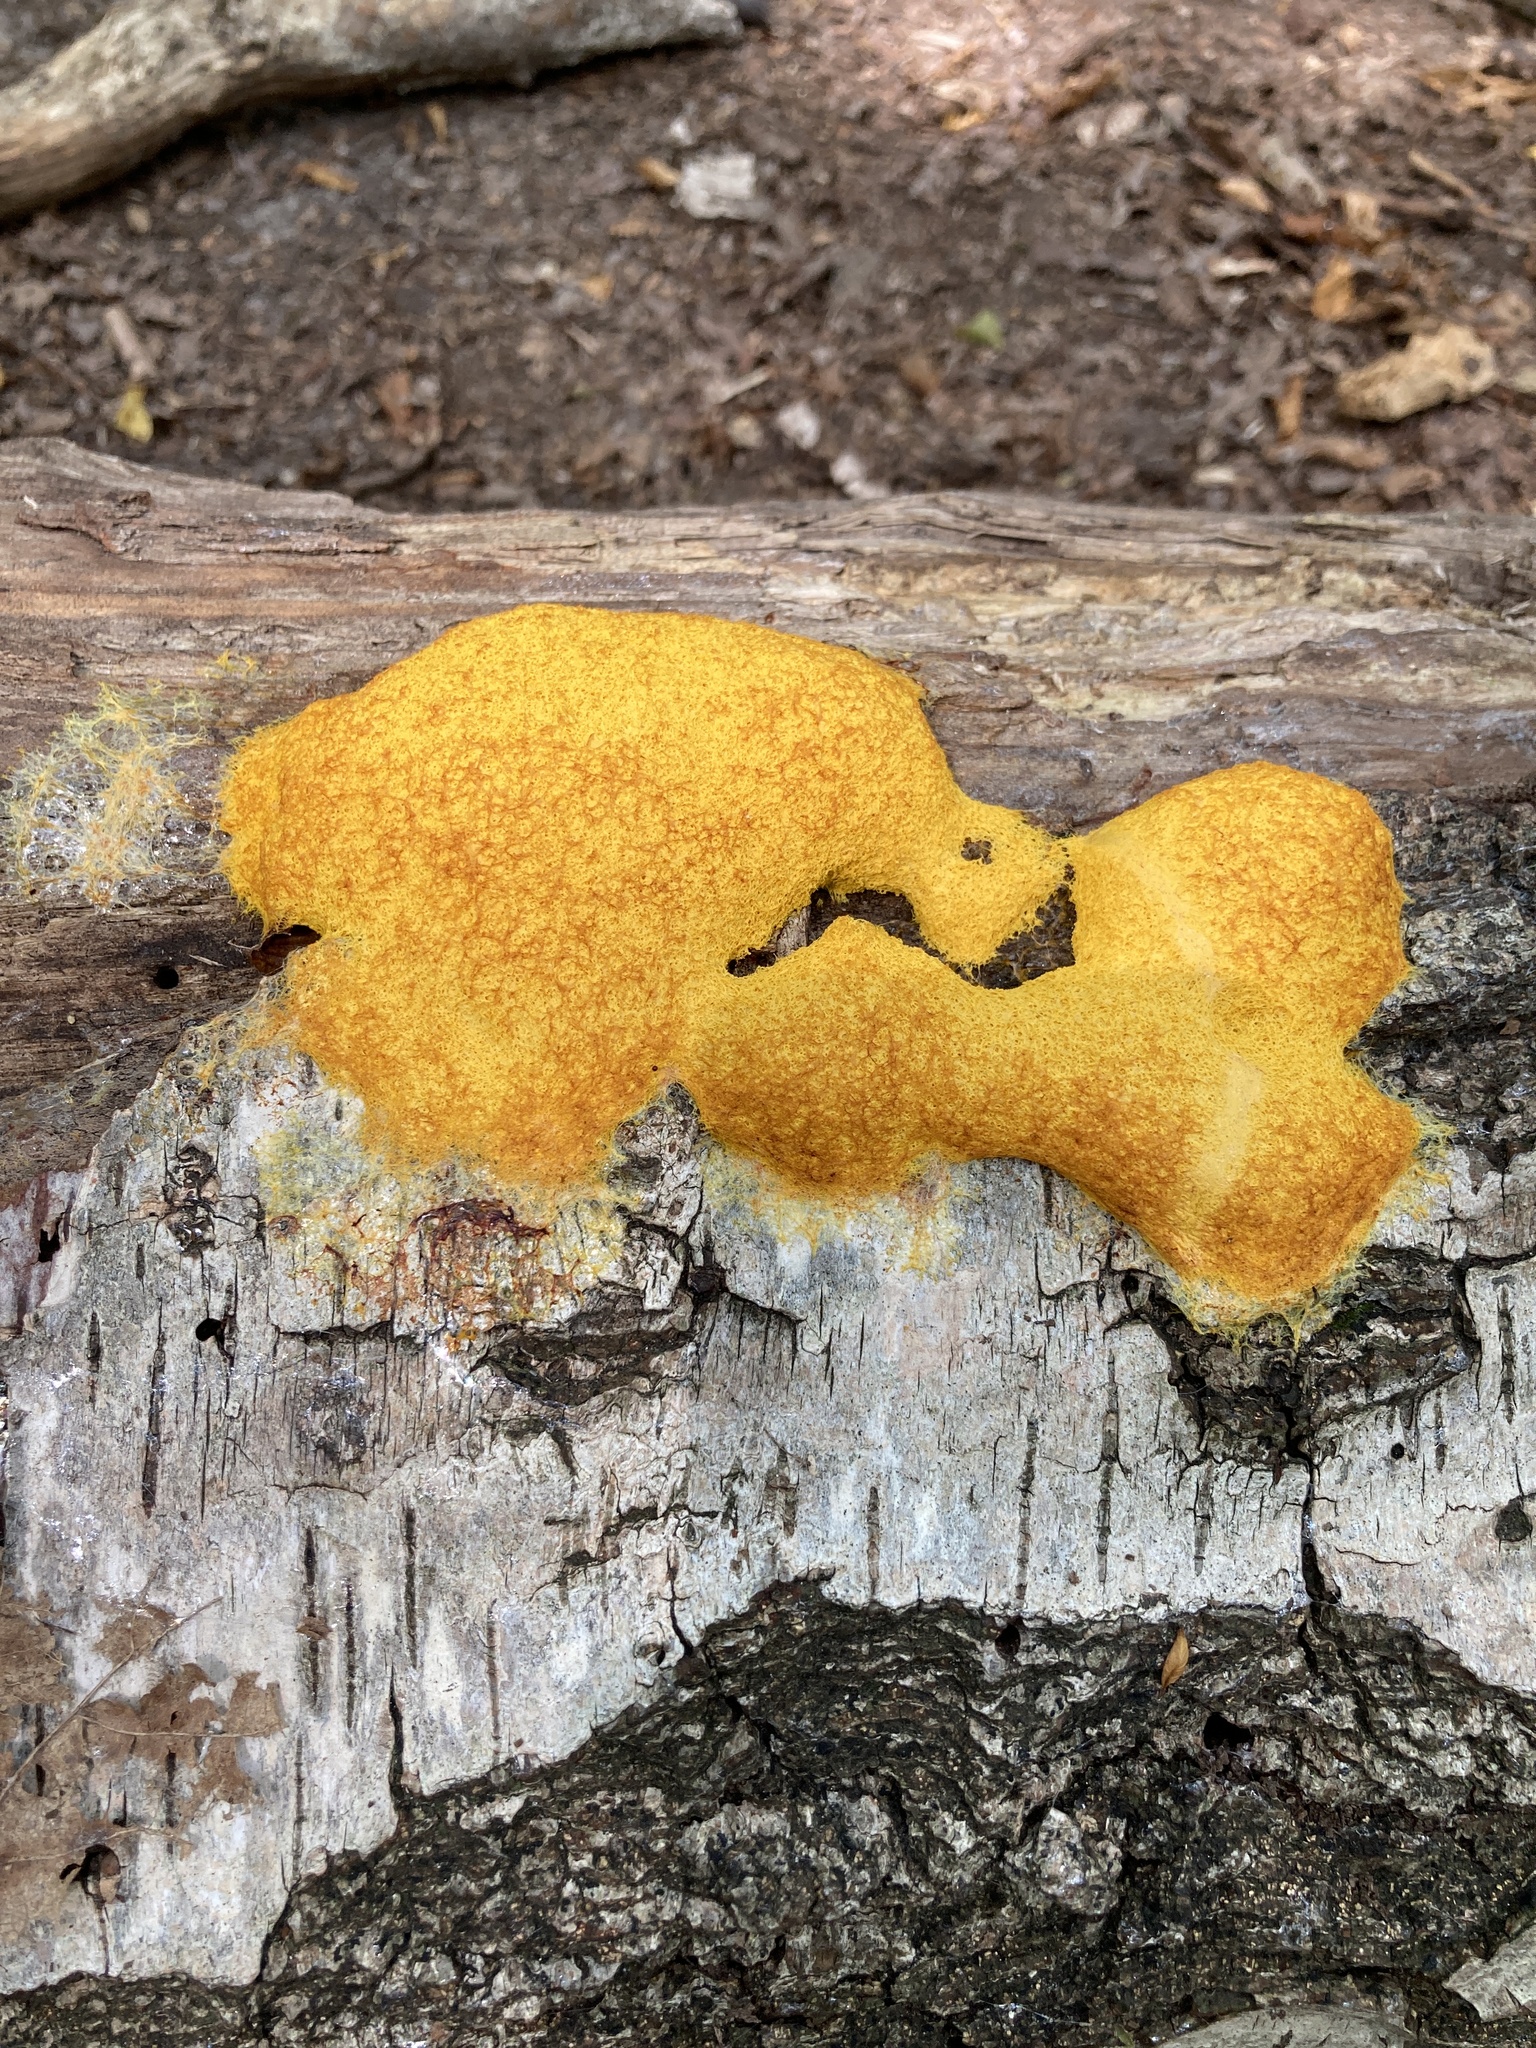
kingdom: Protozoa
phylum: Mycetozoa
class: Myxomycetes
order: Physarales
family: Physaraceae
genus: Fuligo
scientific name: Fuligo septica
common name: Dog vomit slime mold
